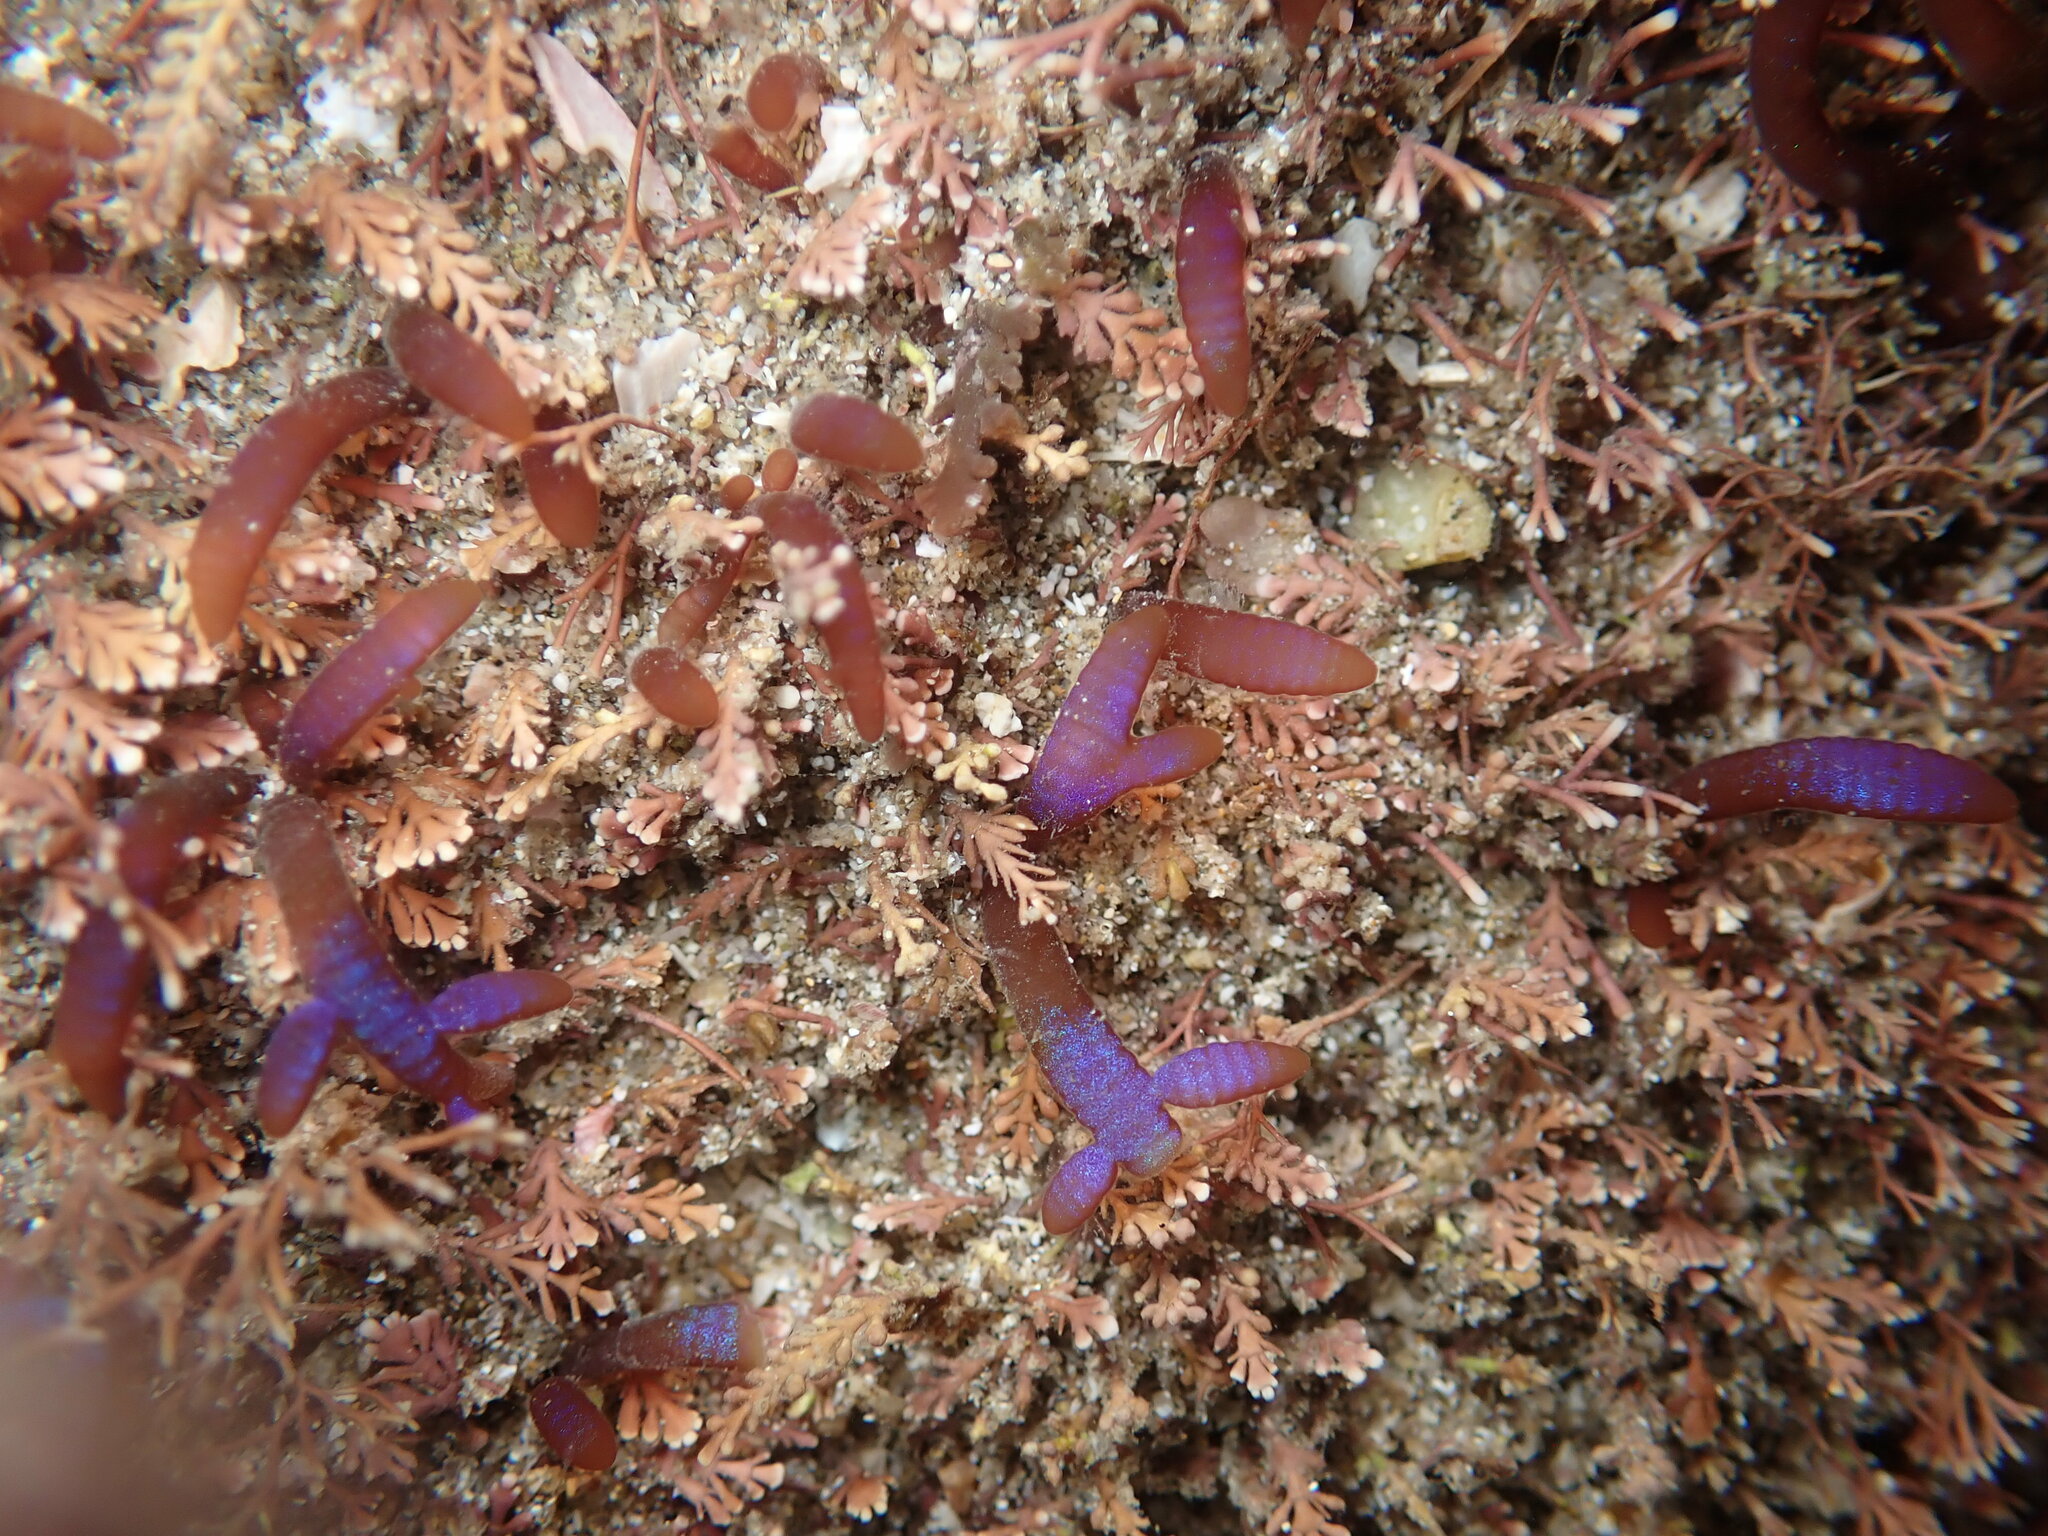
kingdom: Plantae
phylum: Rhodophyta
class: Florideophyceae
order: Rhodymeniales
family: Champiaceae
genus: Champia
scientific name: Champia laingii
